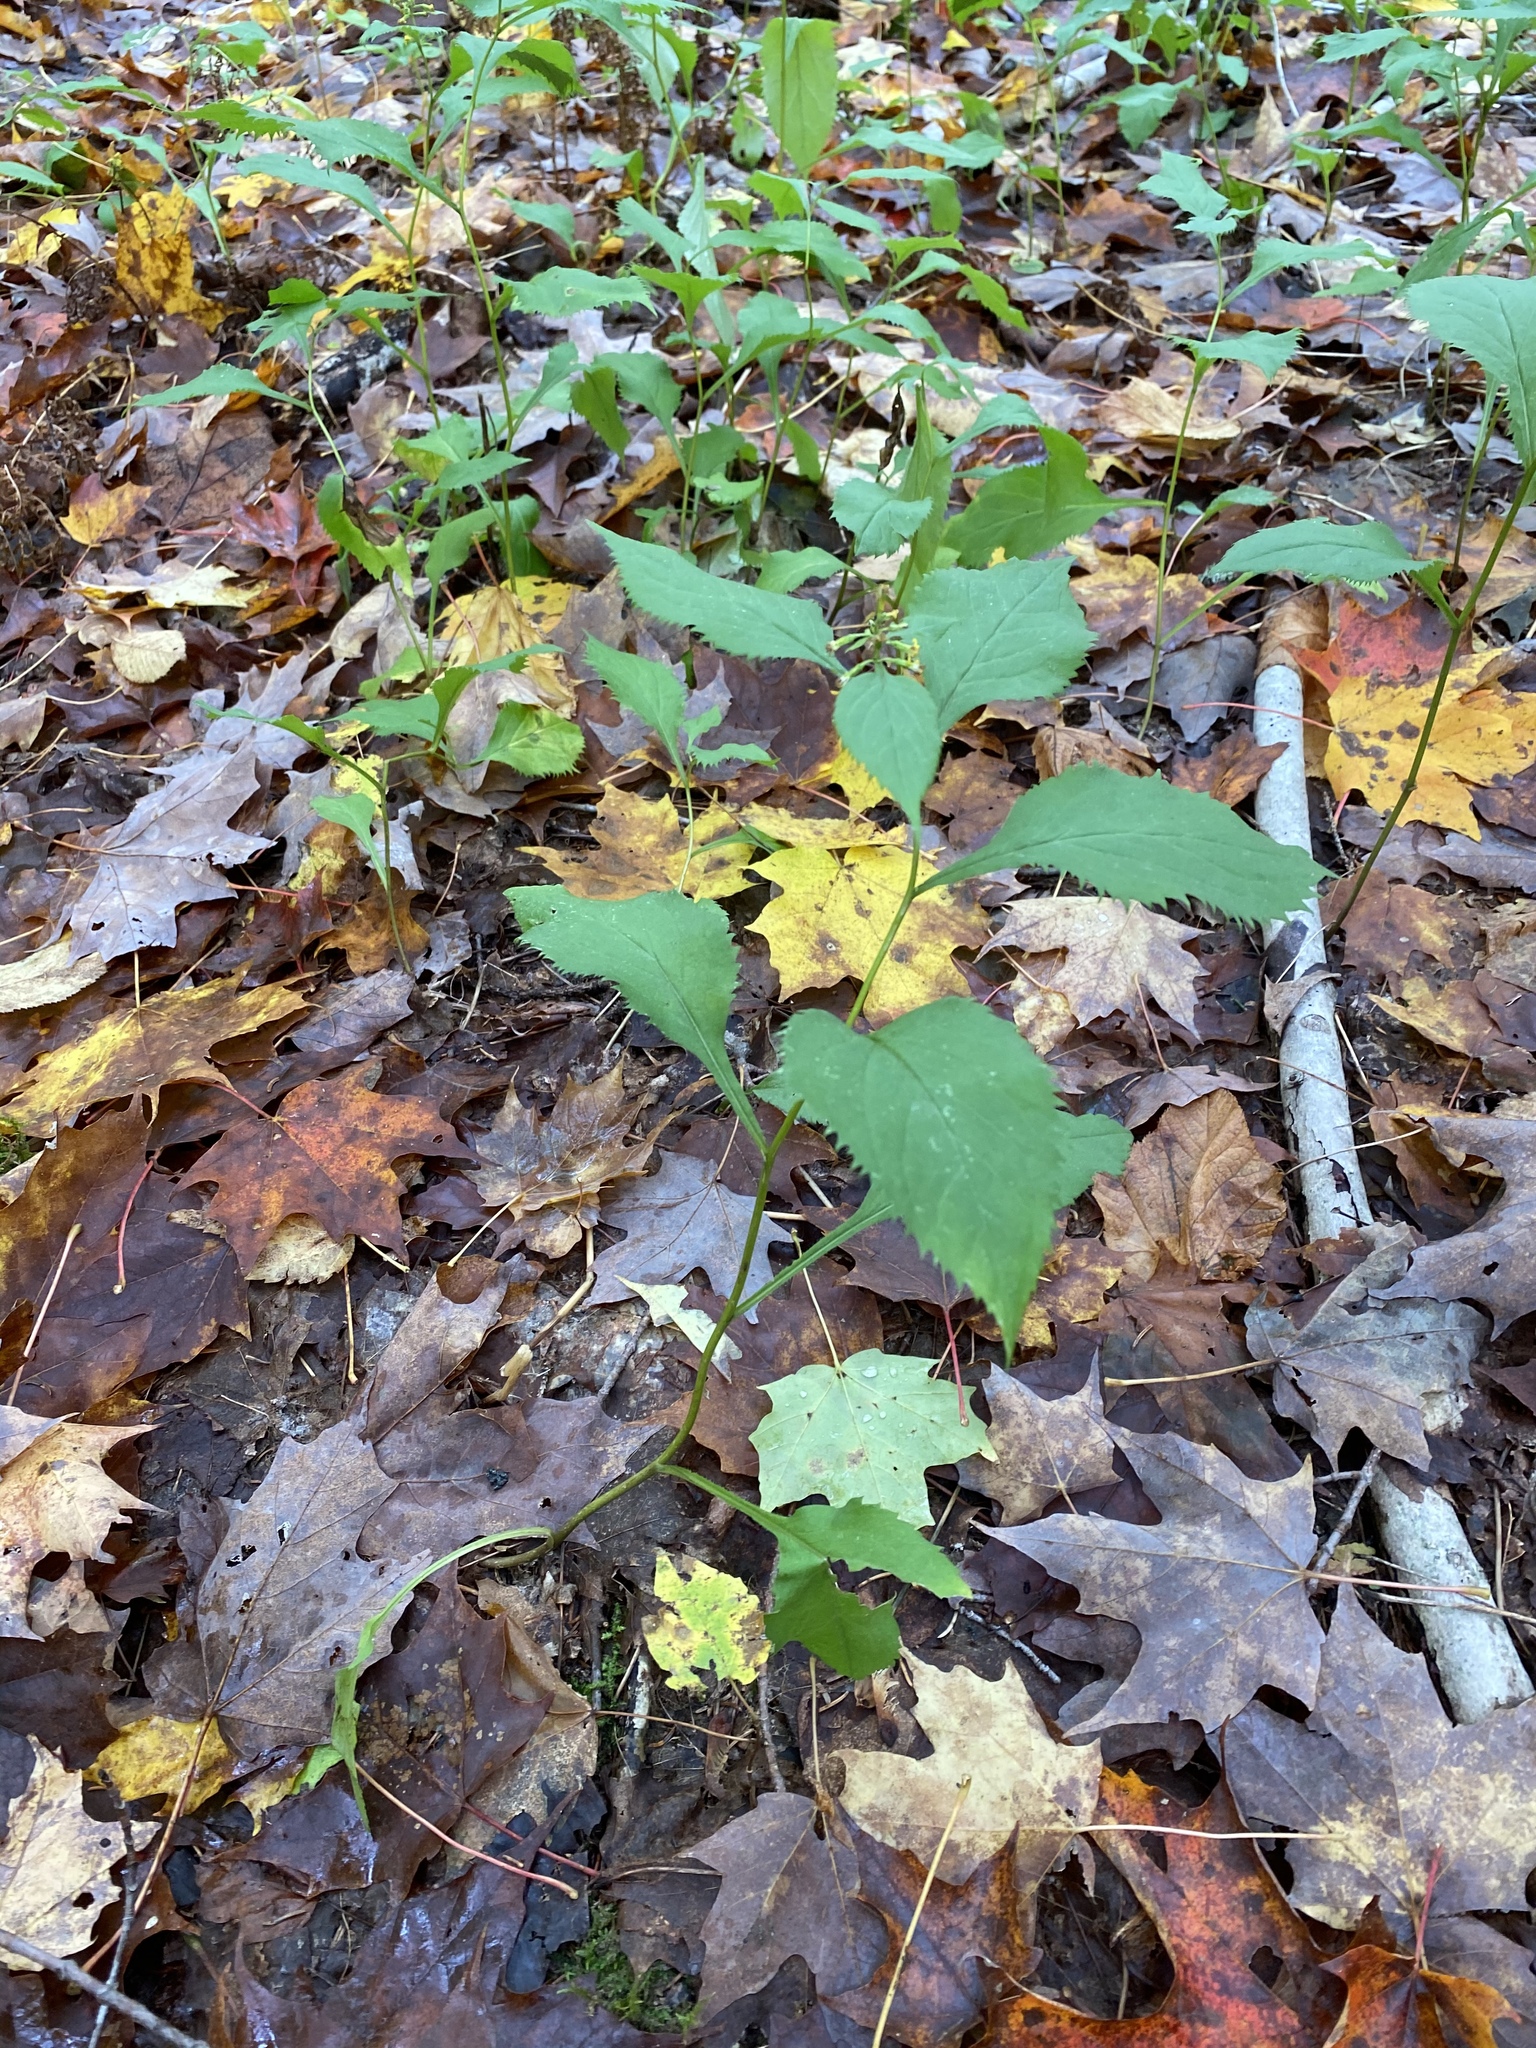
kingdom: Plantae
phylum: Tracheophyta
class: Magnoliopsida
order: Asterales
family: Asteraceae
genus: Solidago
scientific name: Solidago flexicaulis
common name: Zig-zag goldenrod
